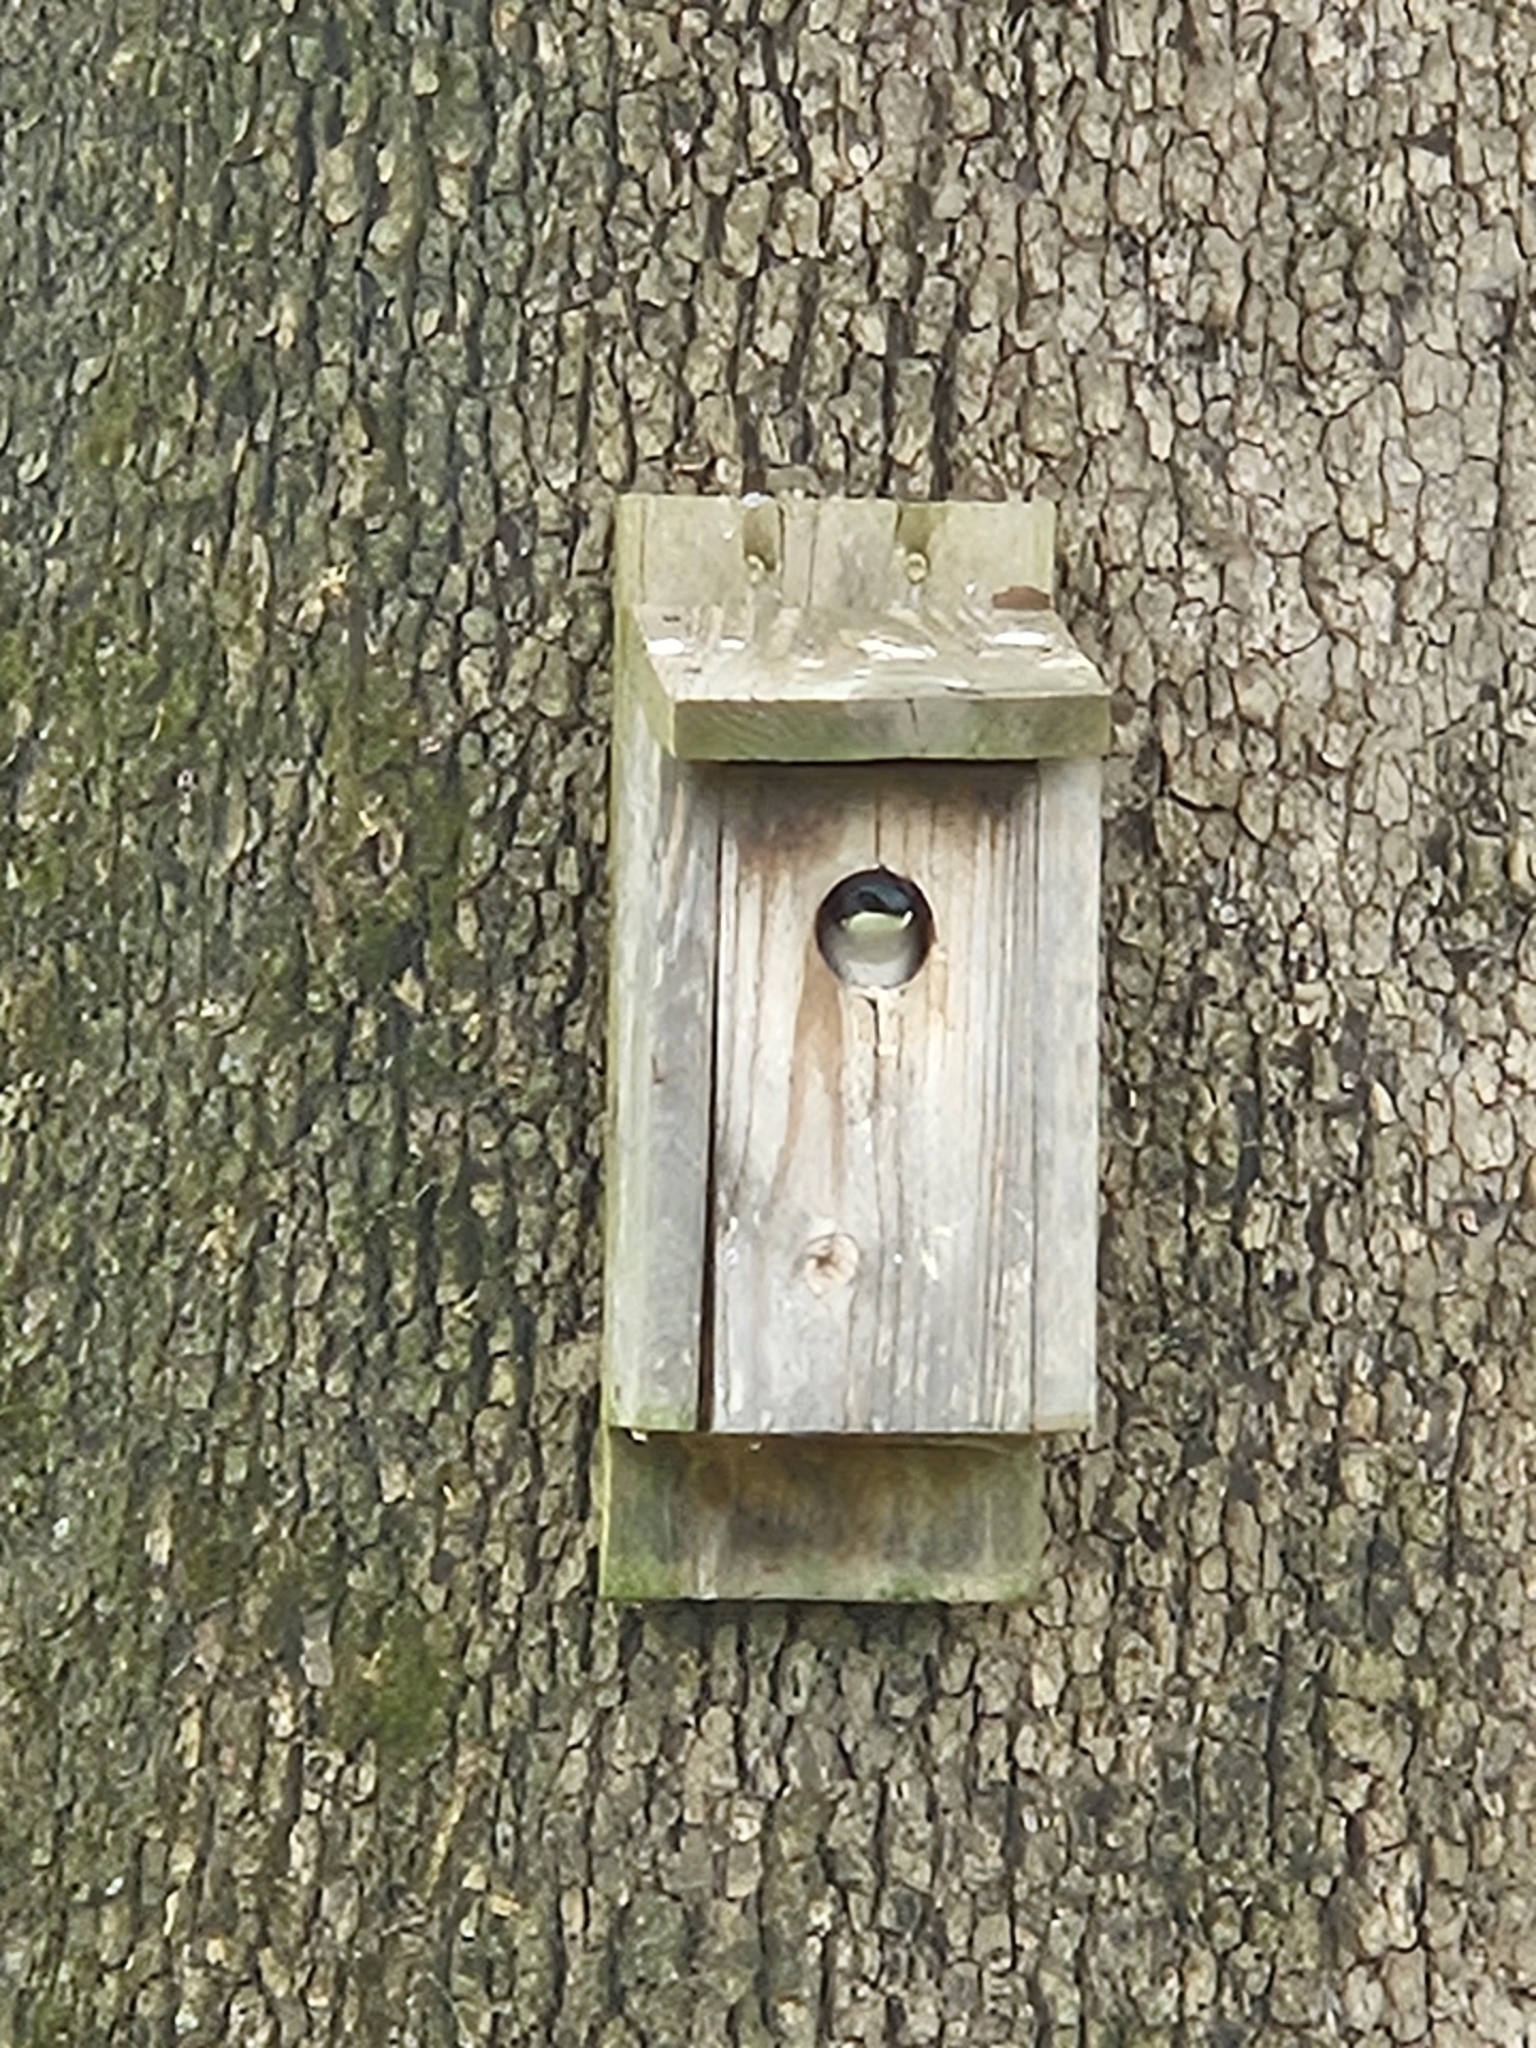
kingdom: Animalia
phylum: Chordata
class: Aves
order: Passeriformes
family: Hirundinidae
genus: Tachycineta
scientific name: Tachycineta bicolor
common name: Tree swallow
